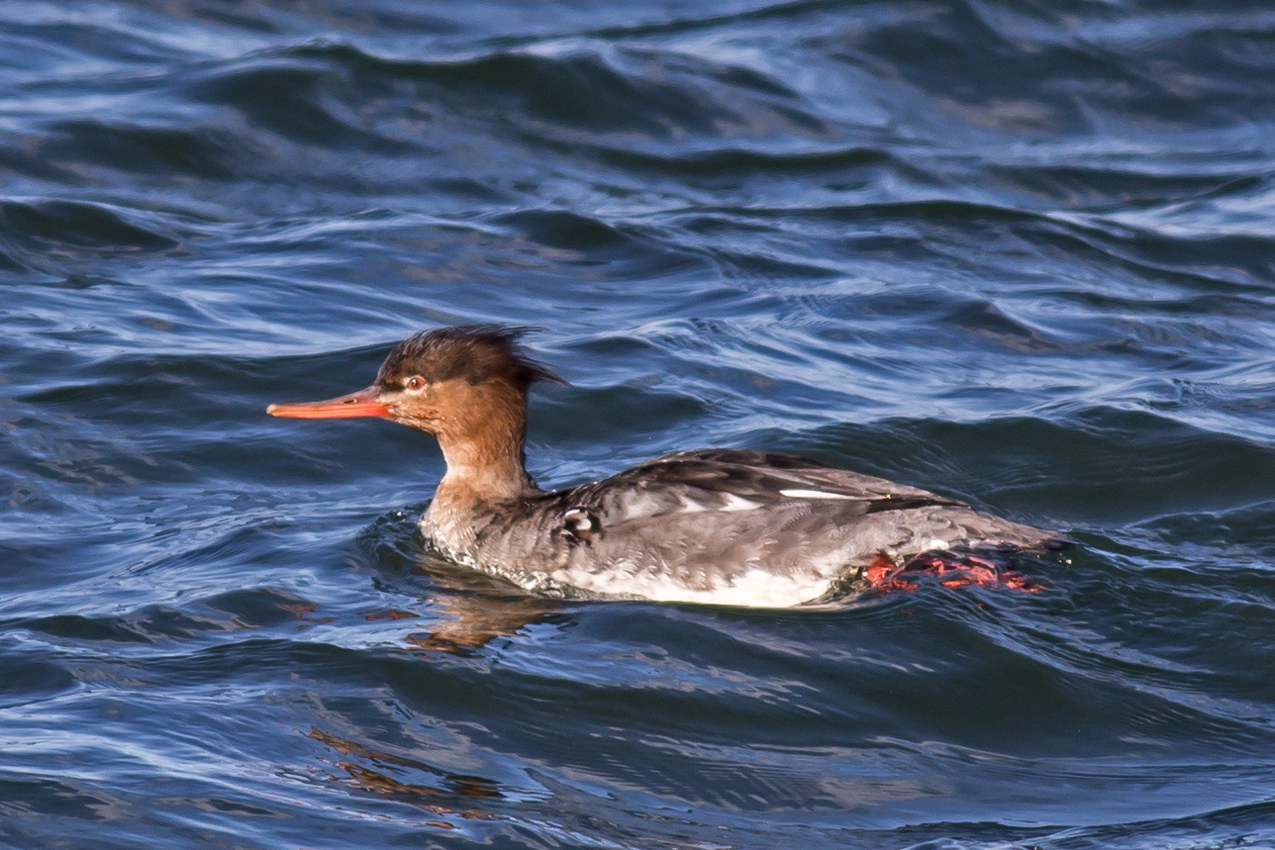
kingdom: Animalia
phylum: Chordata
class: Aves
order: Anseriformes
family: Anatidae
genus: Mergus
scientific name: Mergus serrator
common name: Red-breasted merganser
